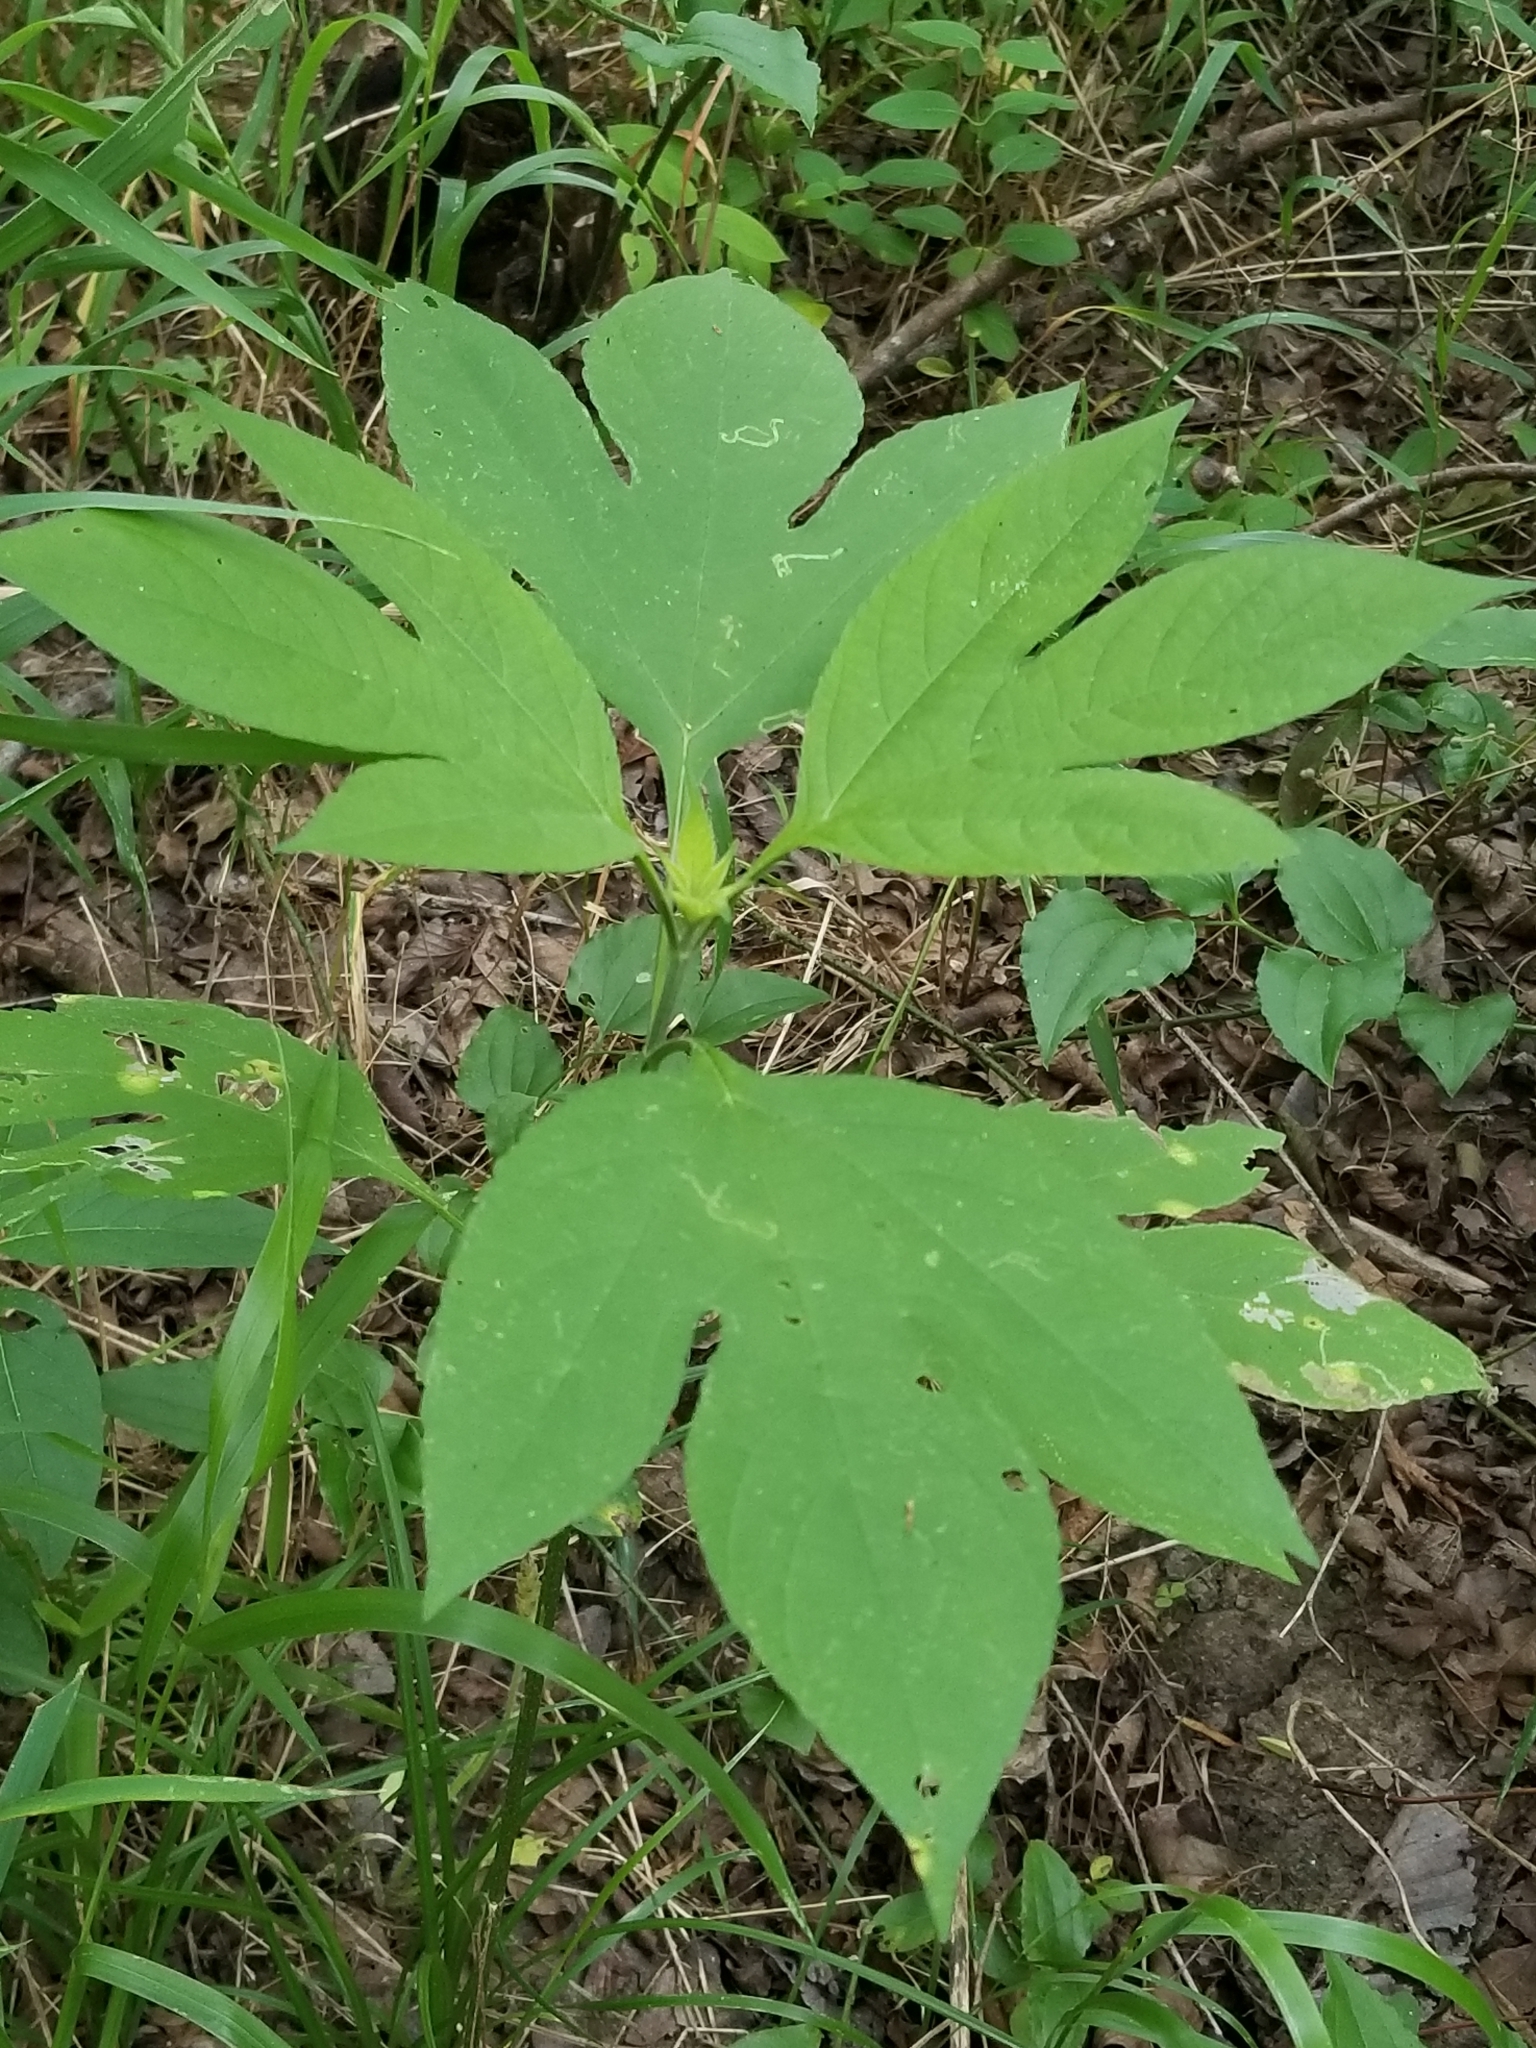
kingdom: Plantae
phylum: Tracheophyta
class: Magnoliopsida
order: Asterales
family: Asteraceae
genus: Ambrosia
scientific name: Ambrosia trifida
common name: Giant ragweed
